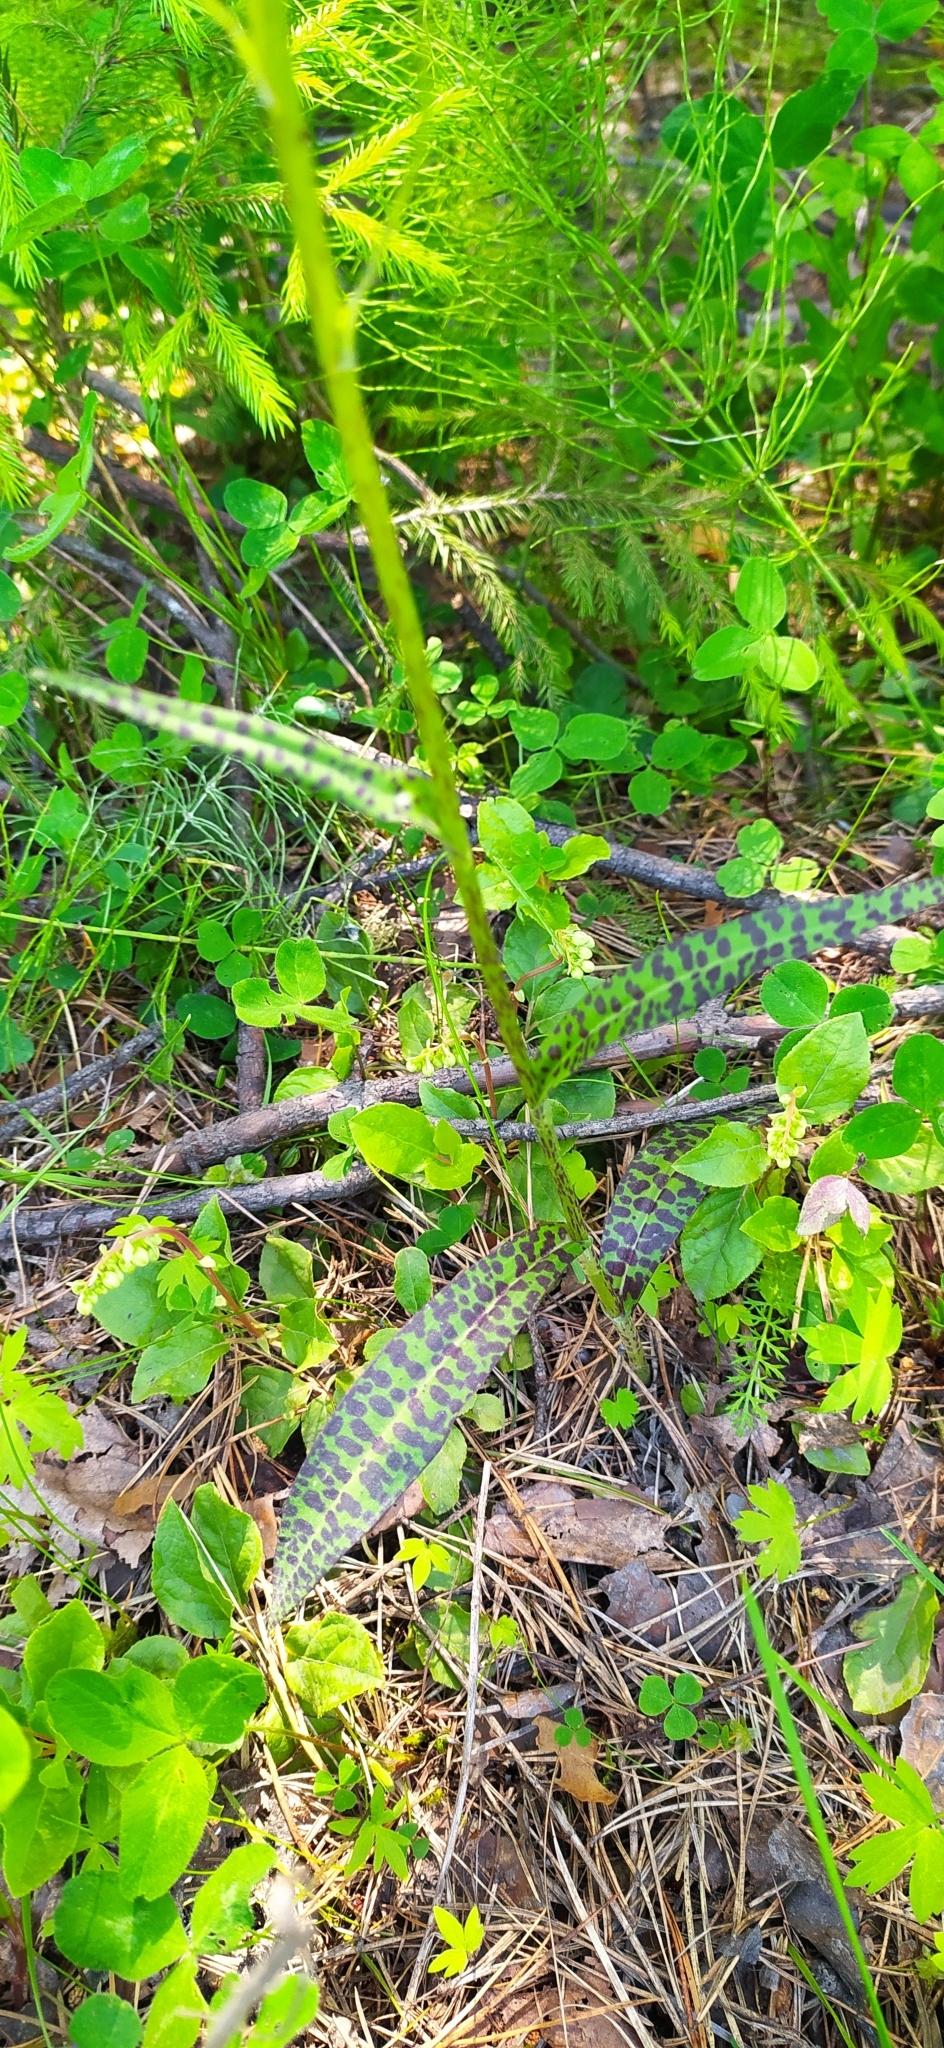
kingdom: Plantae
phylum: Tracheophyta
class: Liliopsida
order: Asparagales
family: Orchidaceae
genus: Dactylorhiza
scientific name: Dactylorhiza maculata
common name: Heath spotted-orchid
